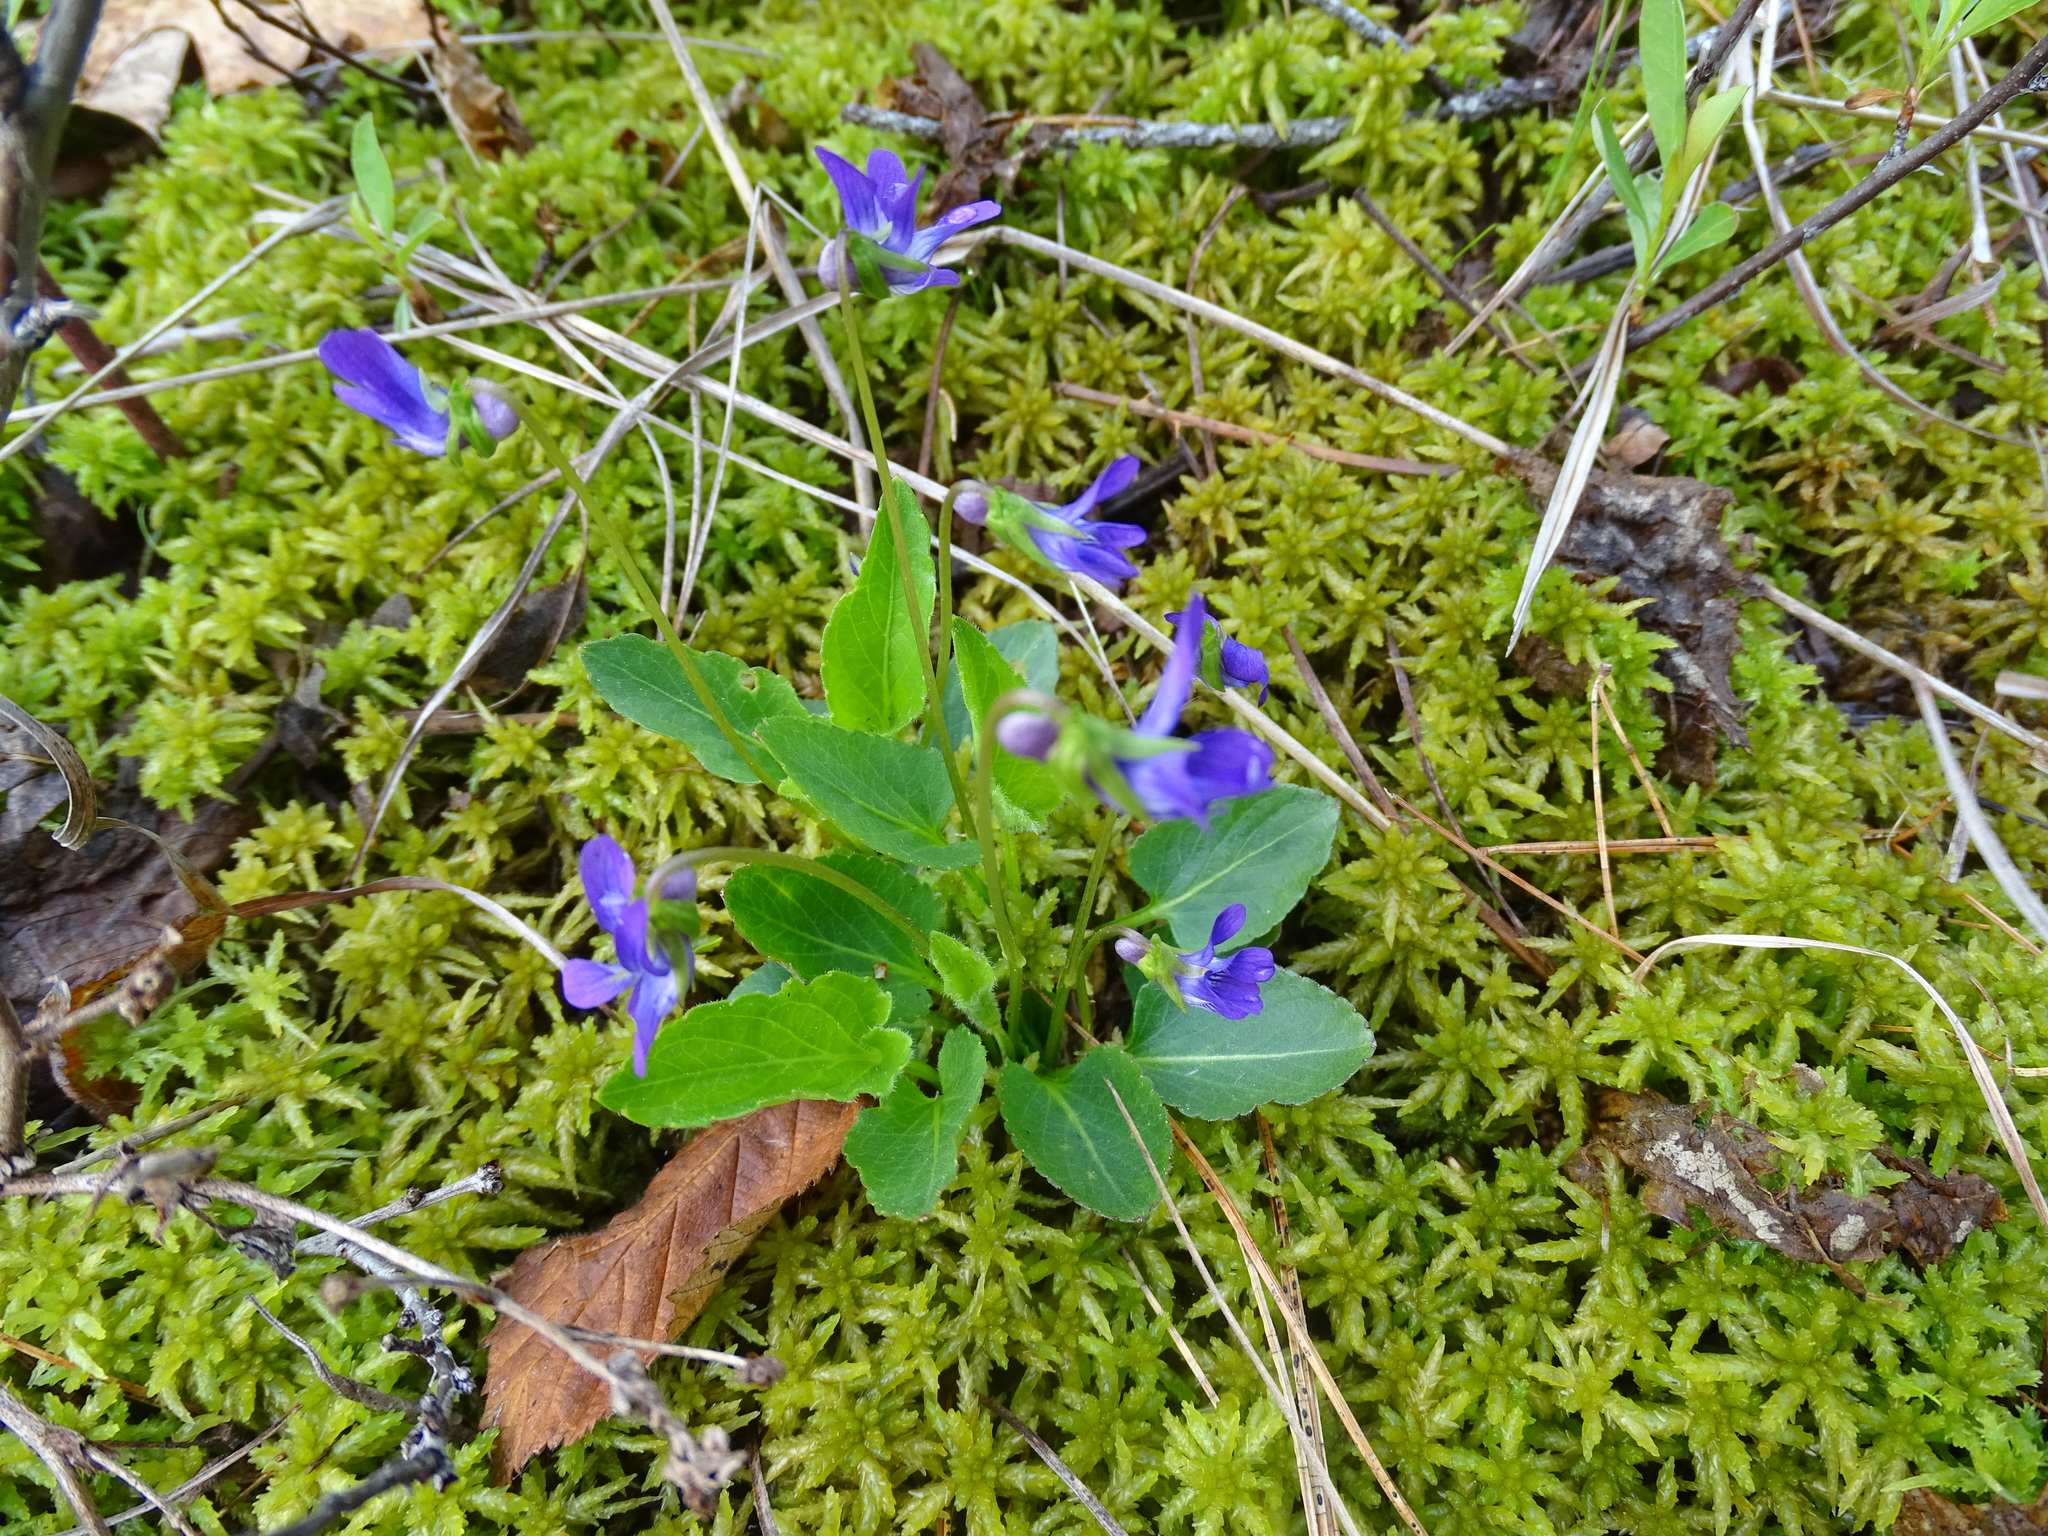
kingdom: Plantae
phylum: Tracheophyta
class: Magnoliopsida
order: Malpighiales
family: Violaceae
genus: Viola
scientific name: Viola sagittata
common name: Arrowhead violet
